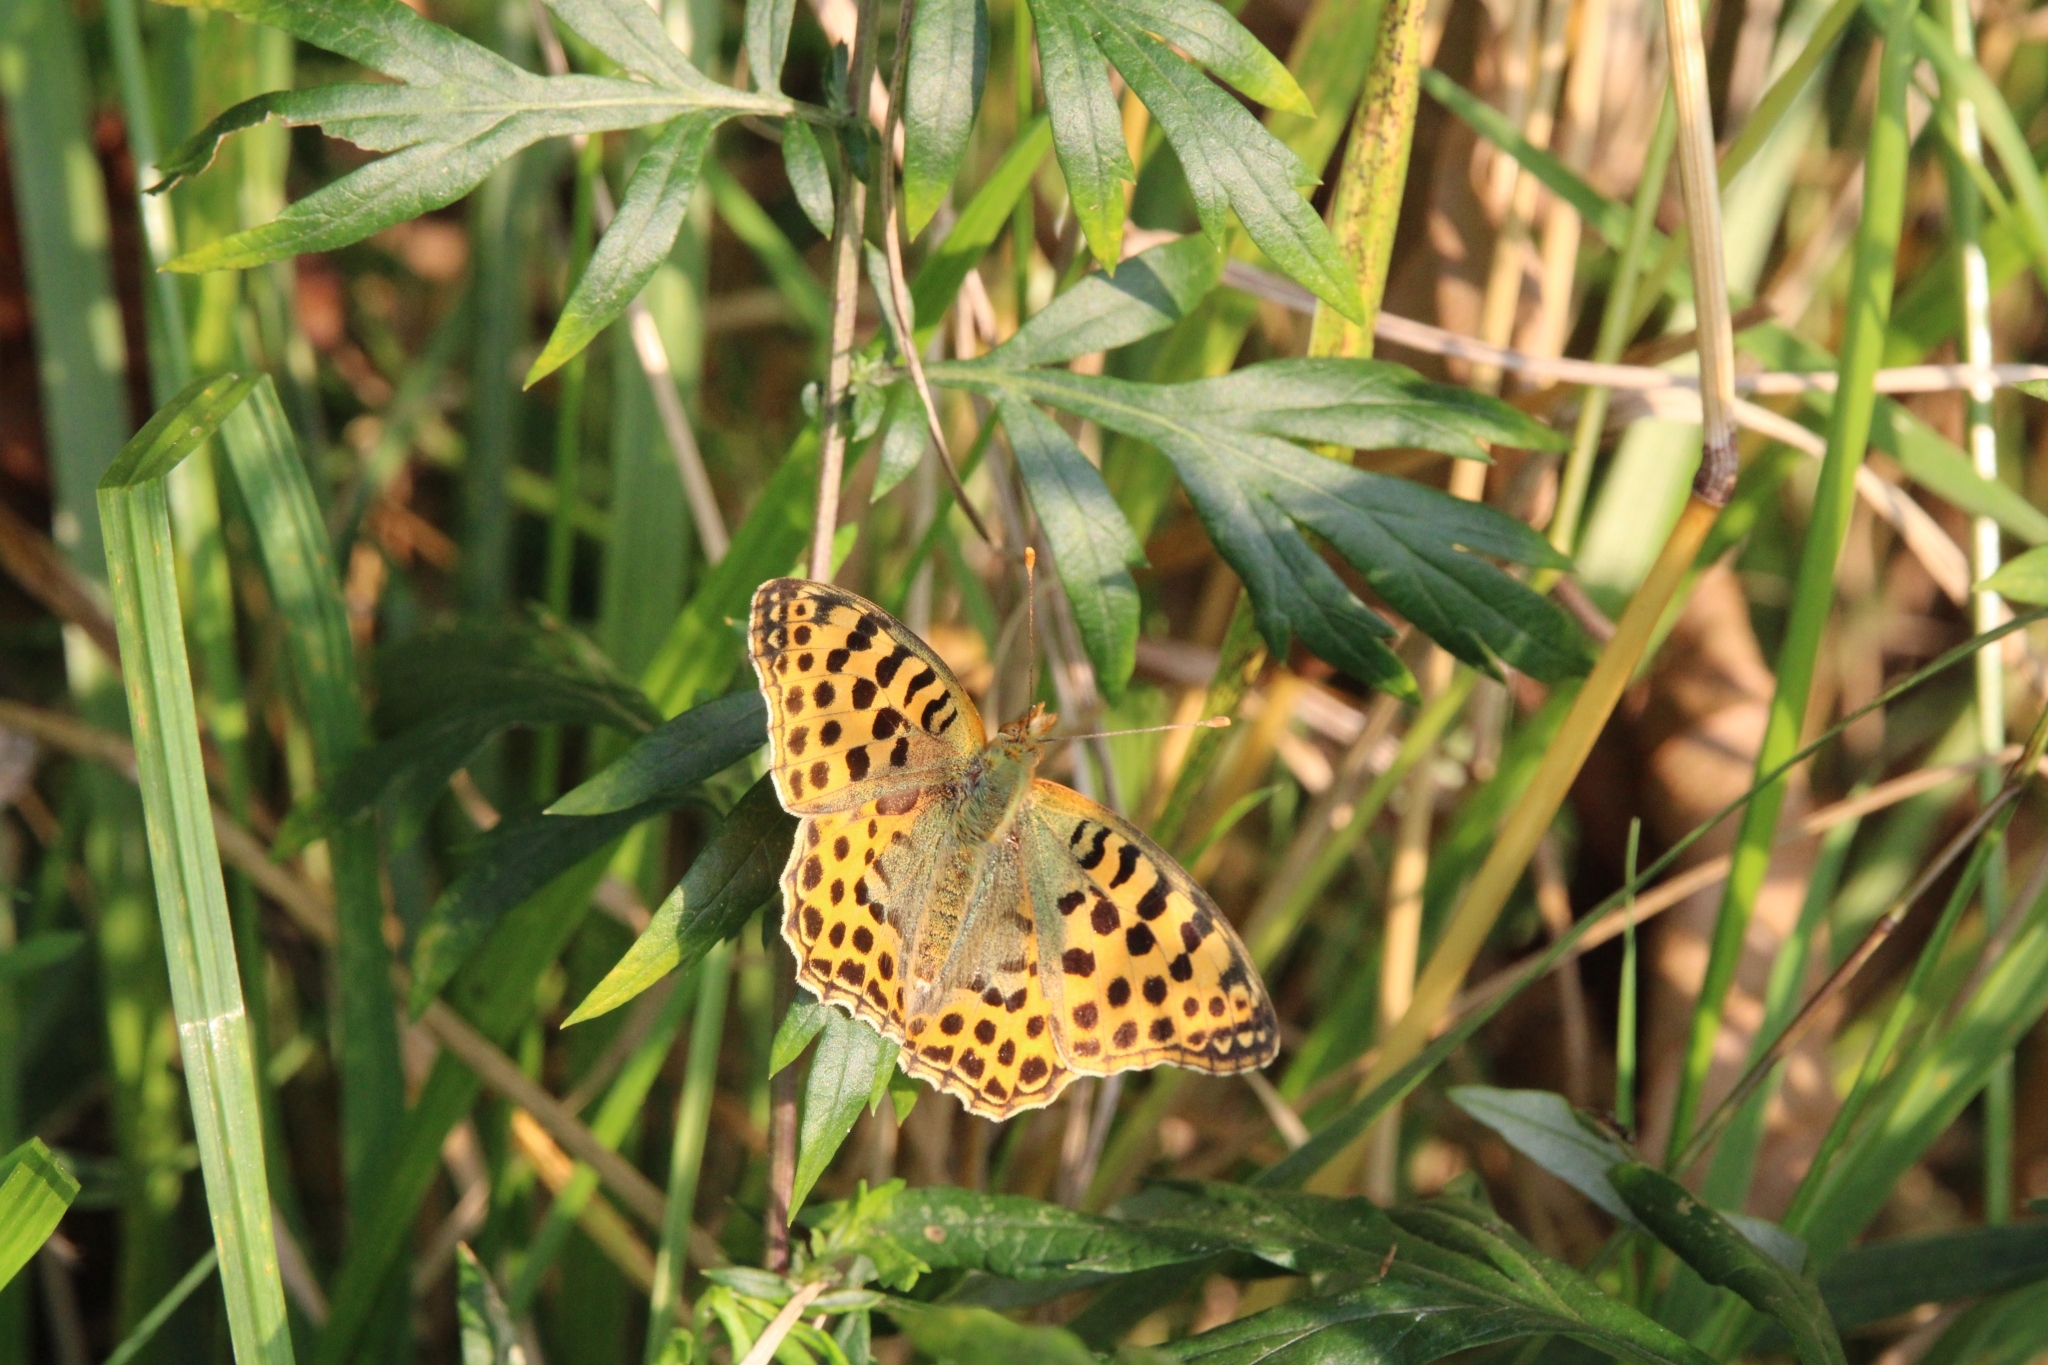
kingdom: Animalia
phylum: Arthropoda
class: Insecta
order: Lepidoptera
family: Nymphalidae
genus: Issoria
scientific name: Issoria lathonia
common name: Queen of spain fritillary
